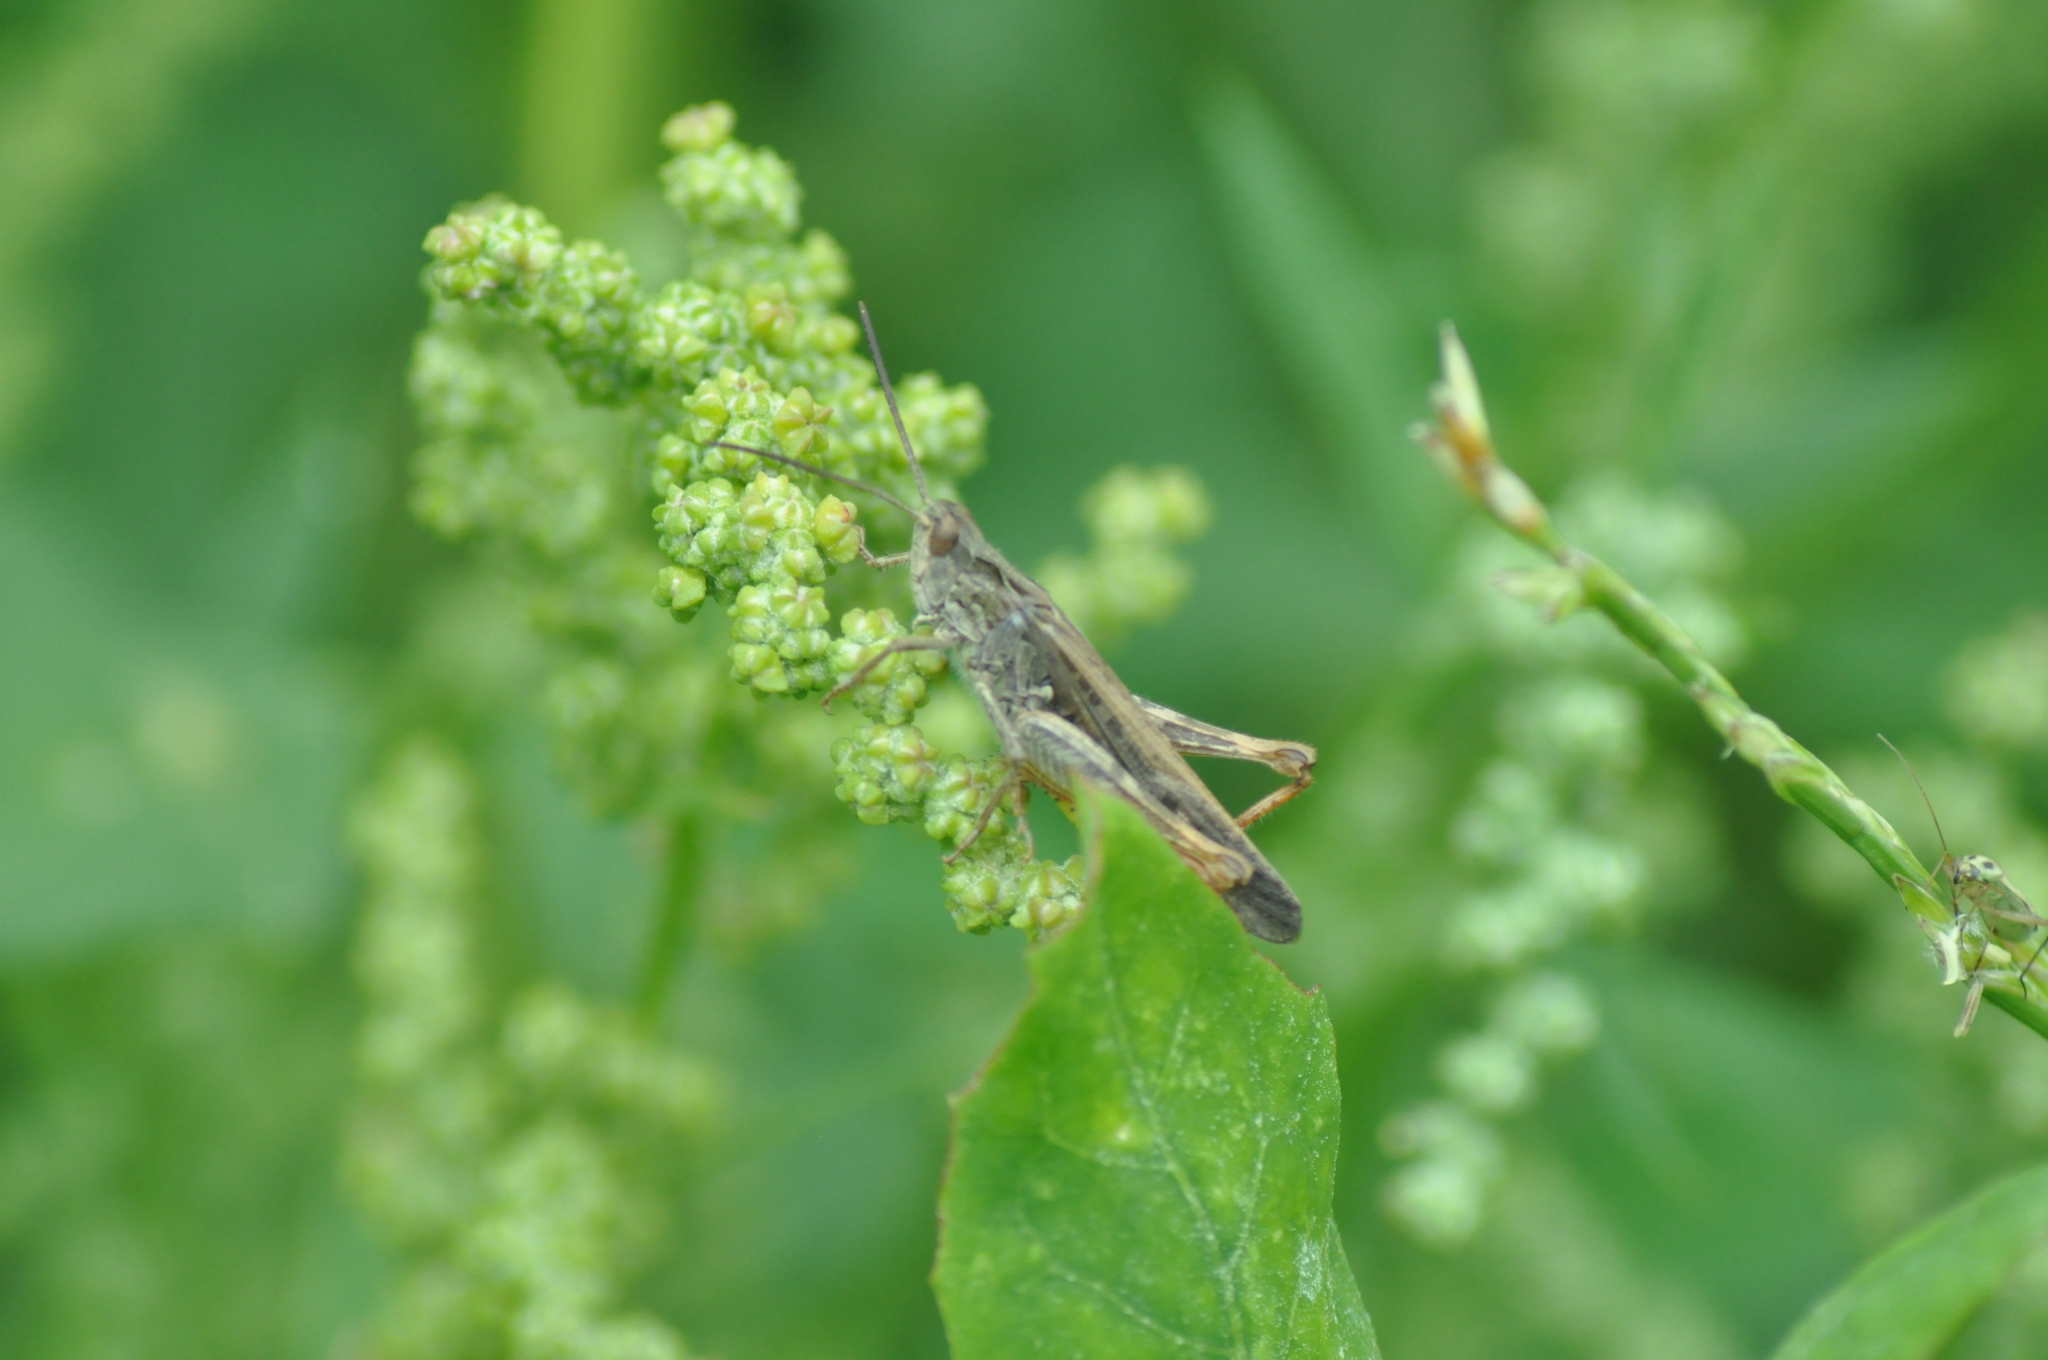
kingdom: Animalia
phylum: Arthropoda
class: Insecta
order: Orthoptera
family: Acrididae
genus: Chorthippus
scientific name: Chorthippus brunneus
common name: Field grasshopper
